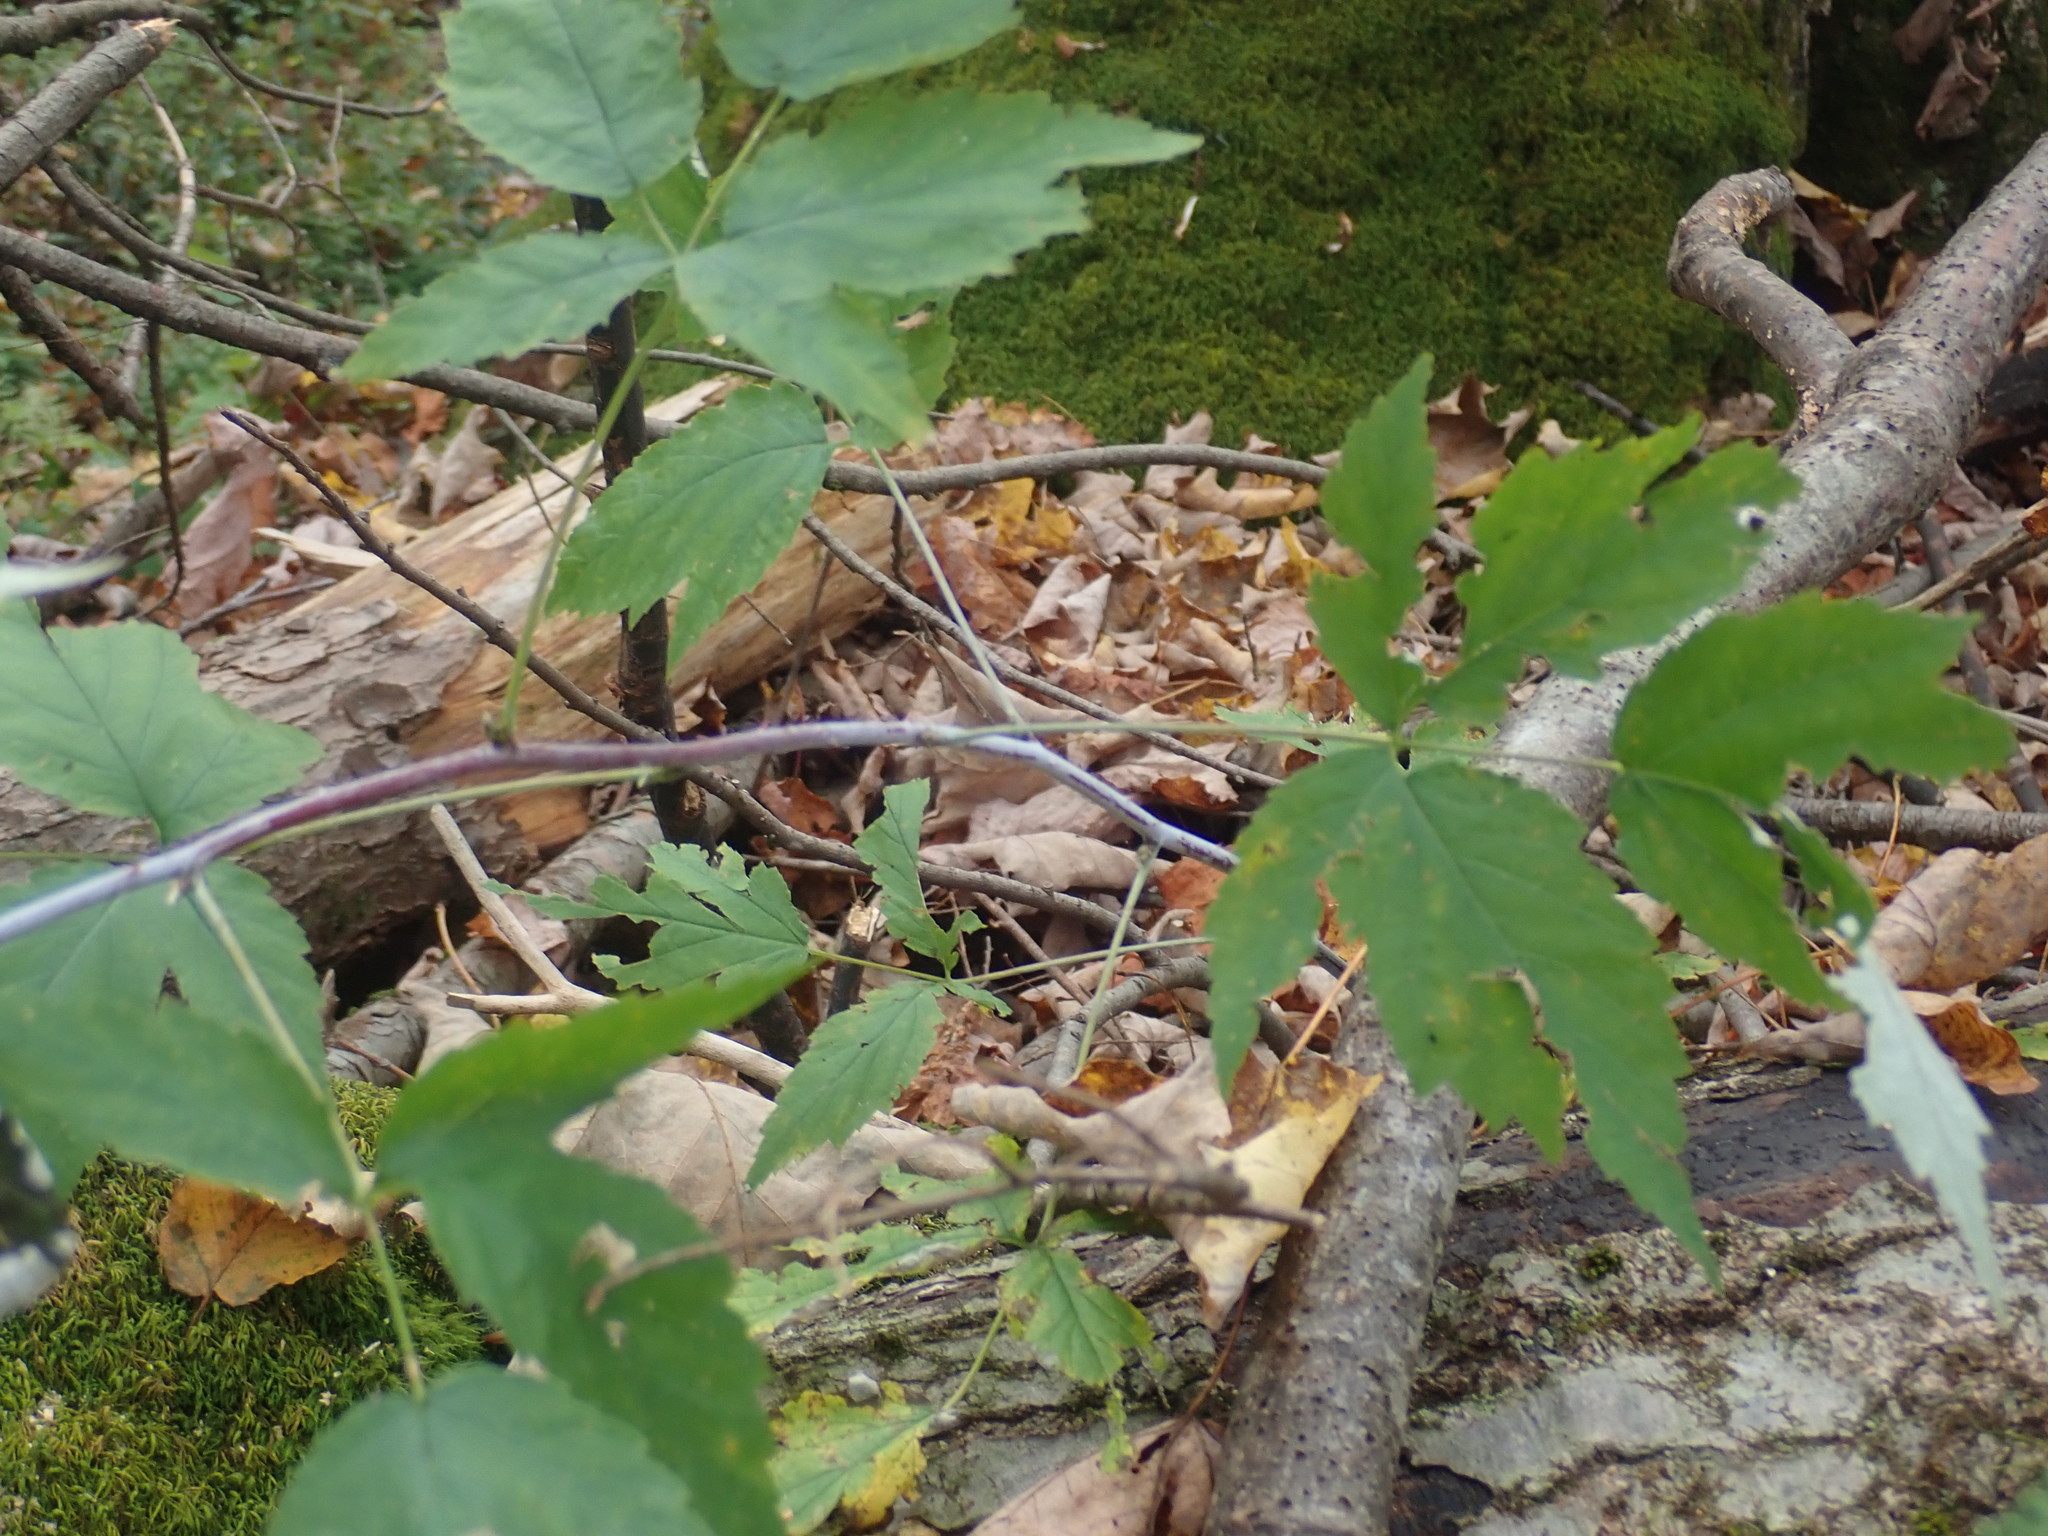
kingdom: Plantae
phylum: Tracheophyta
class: Magnoliopsida
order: Rosales
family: Rosaceae
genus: Rubus
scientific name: Rubus occidentalis
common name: Black raspberry
